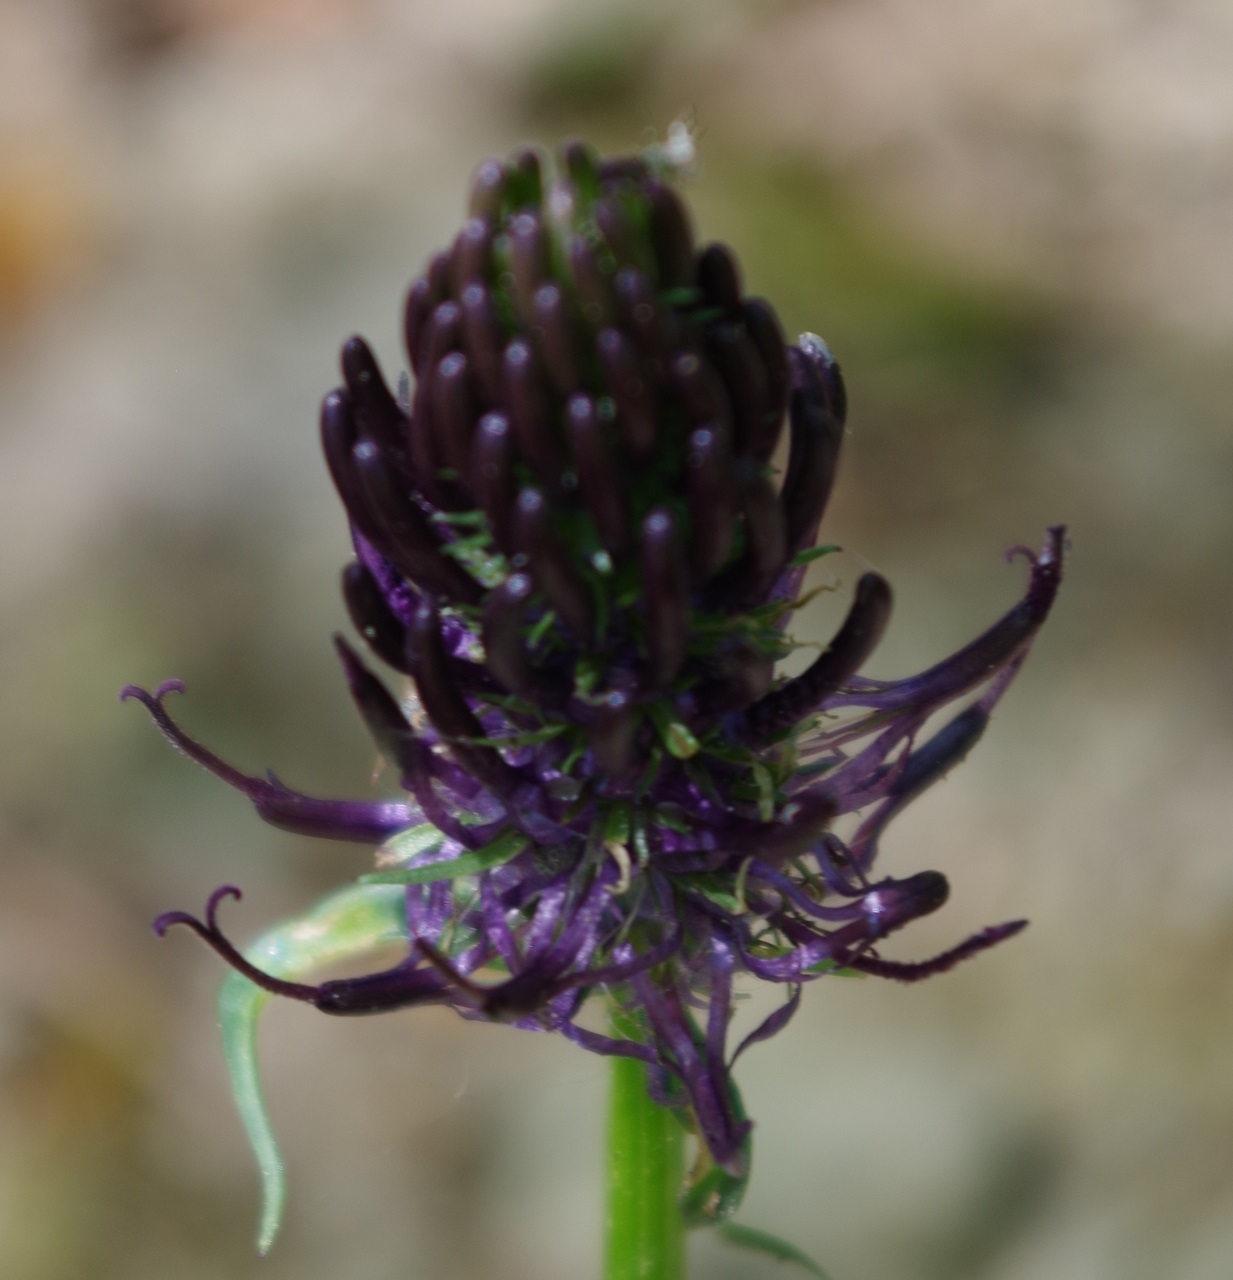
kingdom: Plantae
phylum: Tracheophyta
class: Magnoliopsida
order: Asterales
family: Campanulaceae
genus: Phyteuma
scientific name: Phyteuma nigrum
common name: Black rampion
